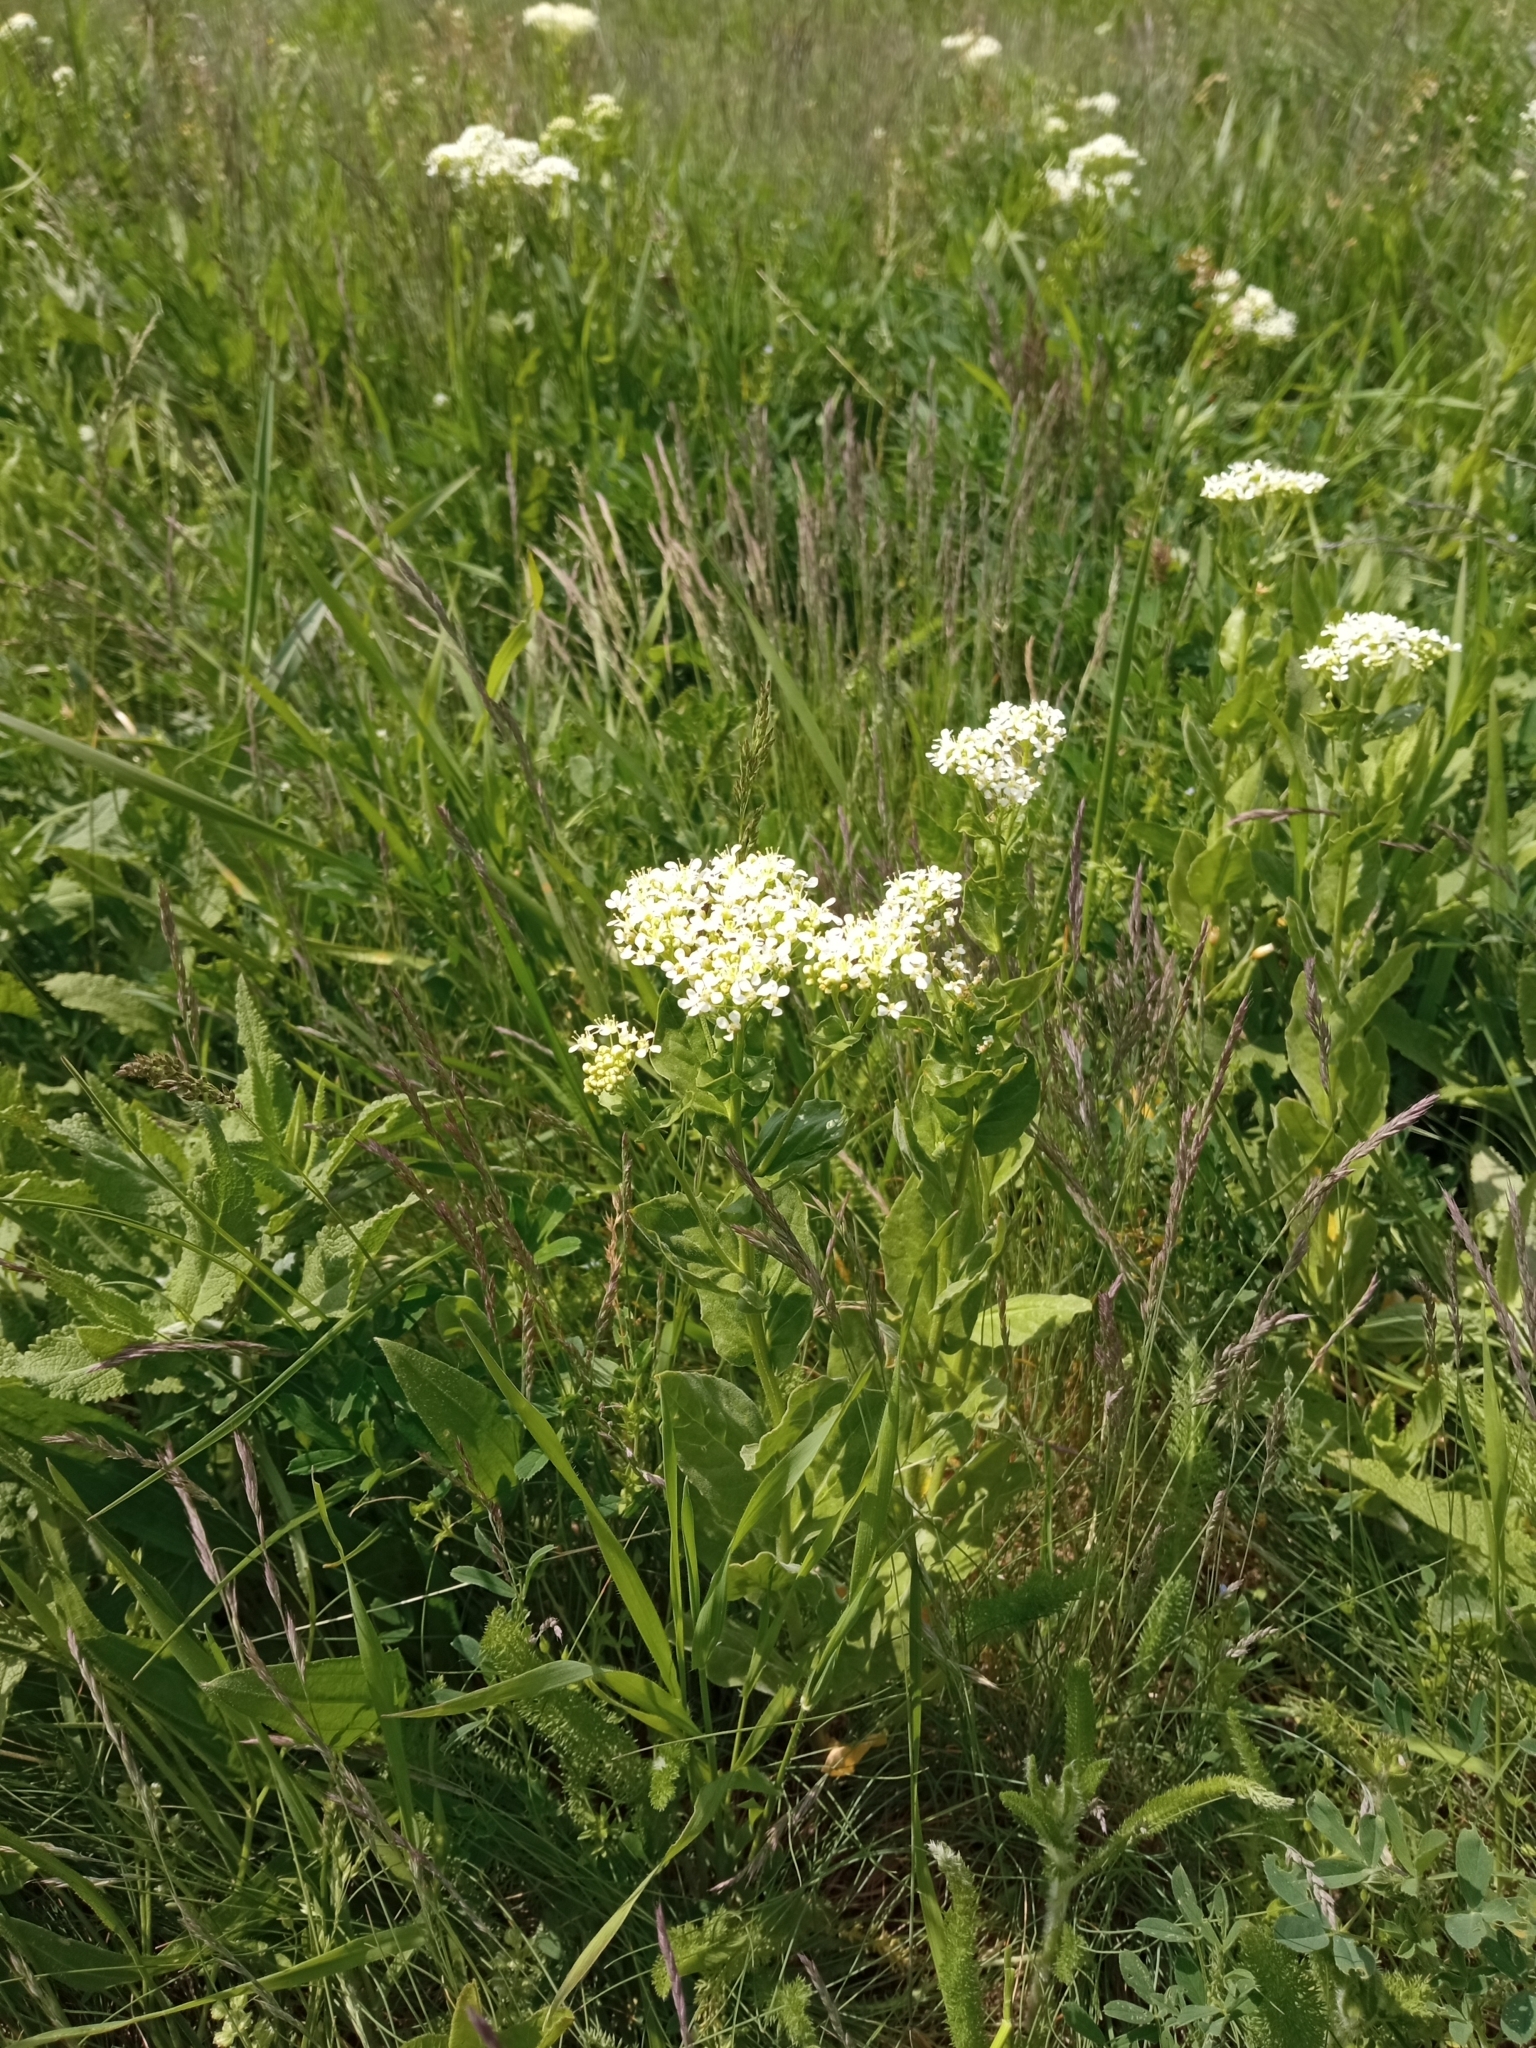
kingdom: Plantae
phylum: Tracheophyta
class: Magnoliopsida
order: Brassicales
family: Brassicaceae
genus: Lepidium
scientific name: Lepidium draba
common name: Hoary cress
